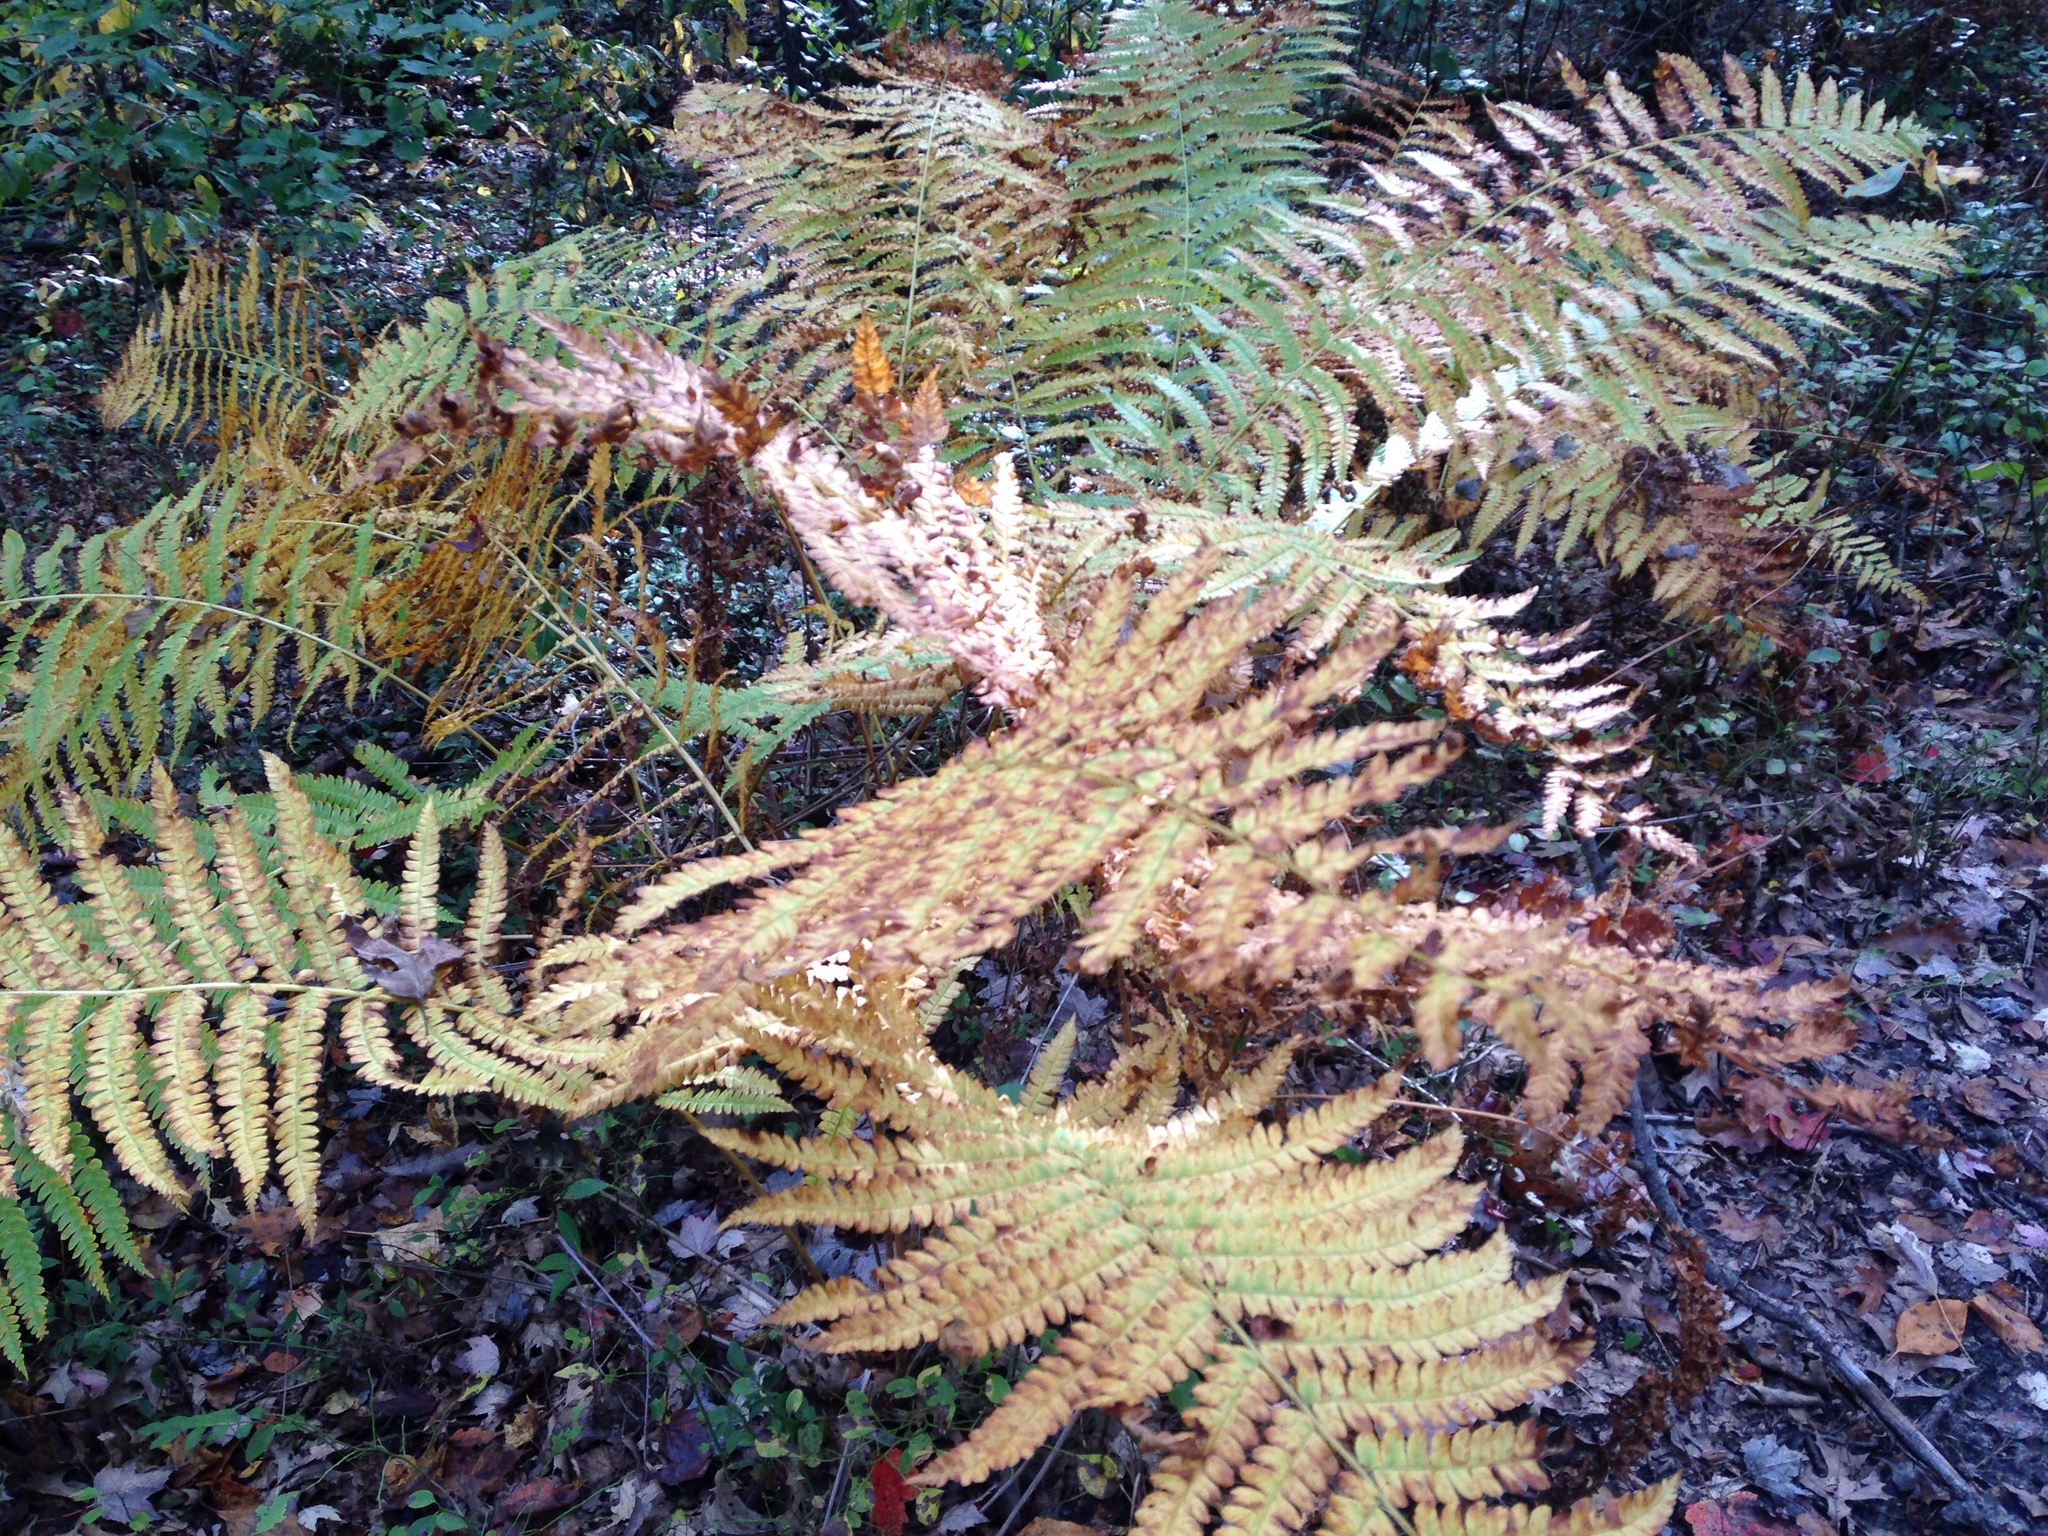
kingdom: Plantae
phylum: Tracheophyta
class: Polypodiopsida
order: Osmundales
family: Osmundaceae
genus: Osmundastrum
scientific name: Osmundastrum cinnamomeum
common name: Cinnamon fern
